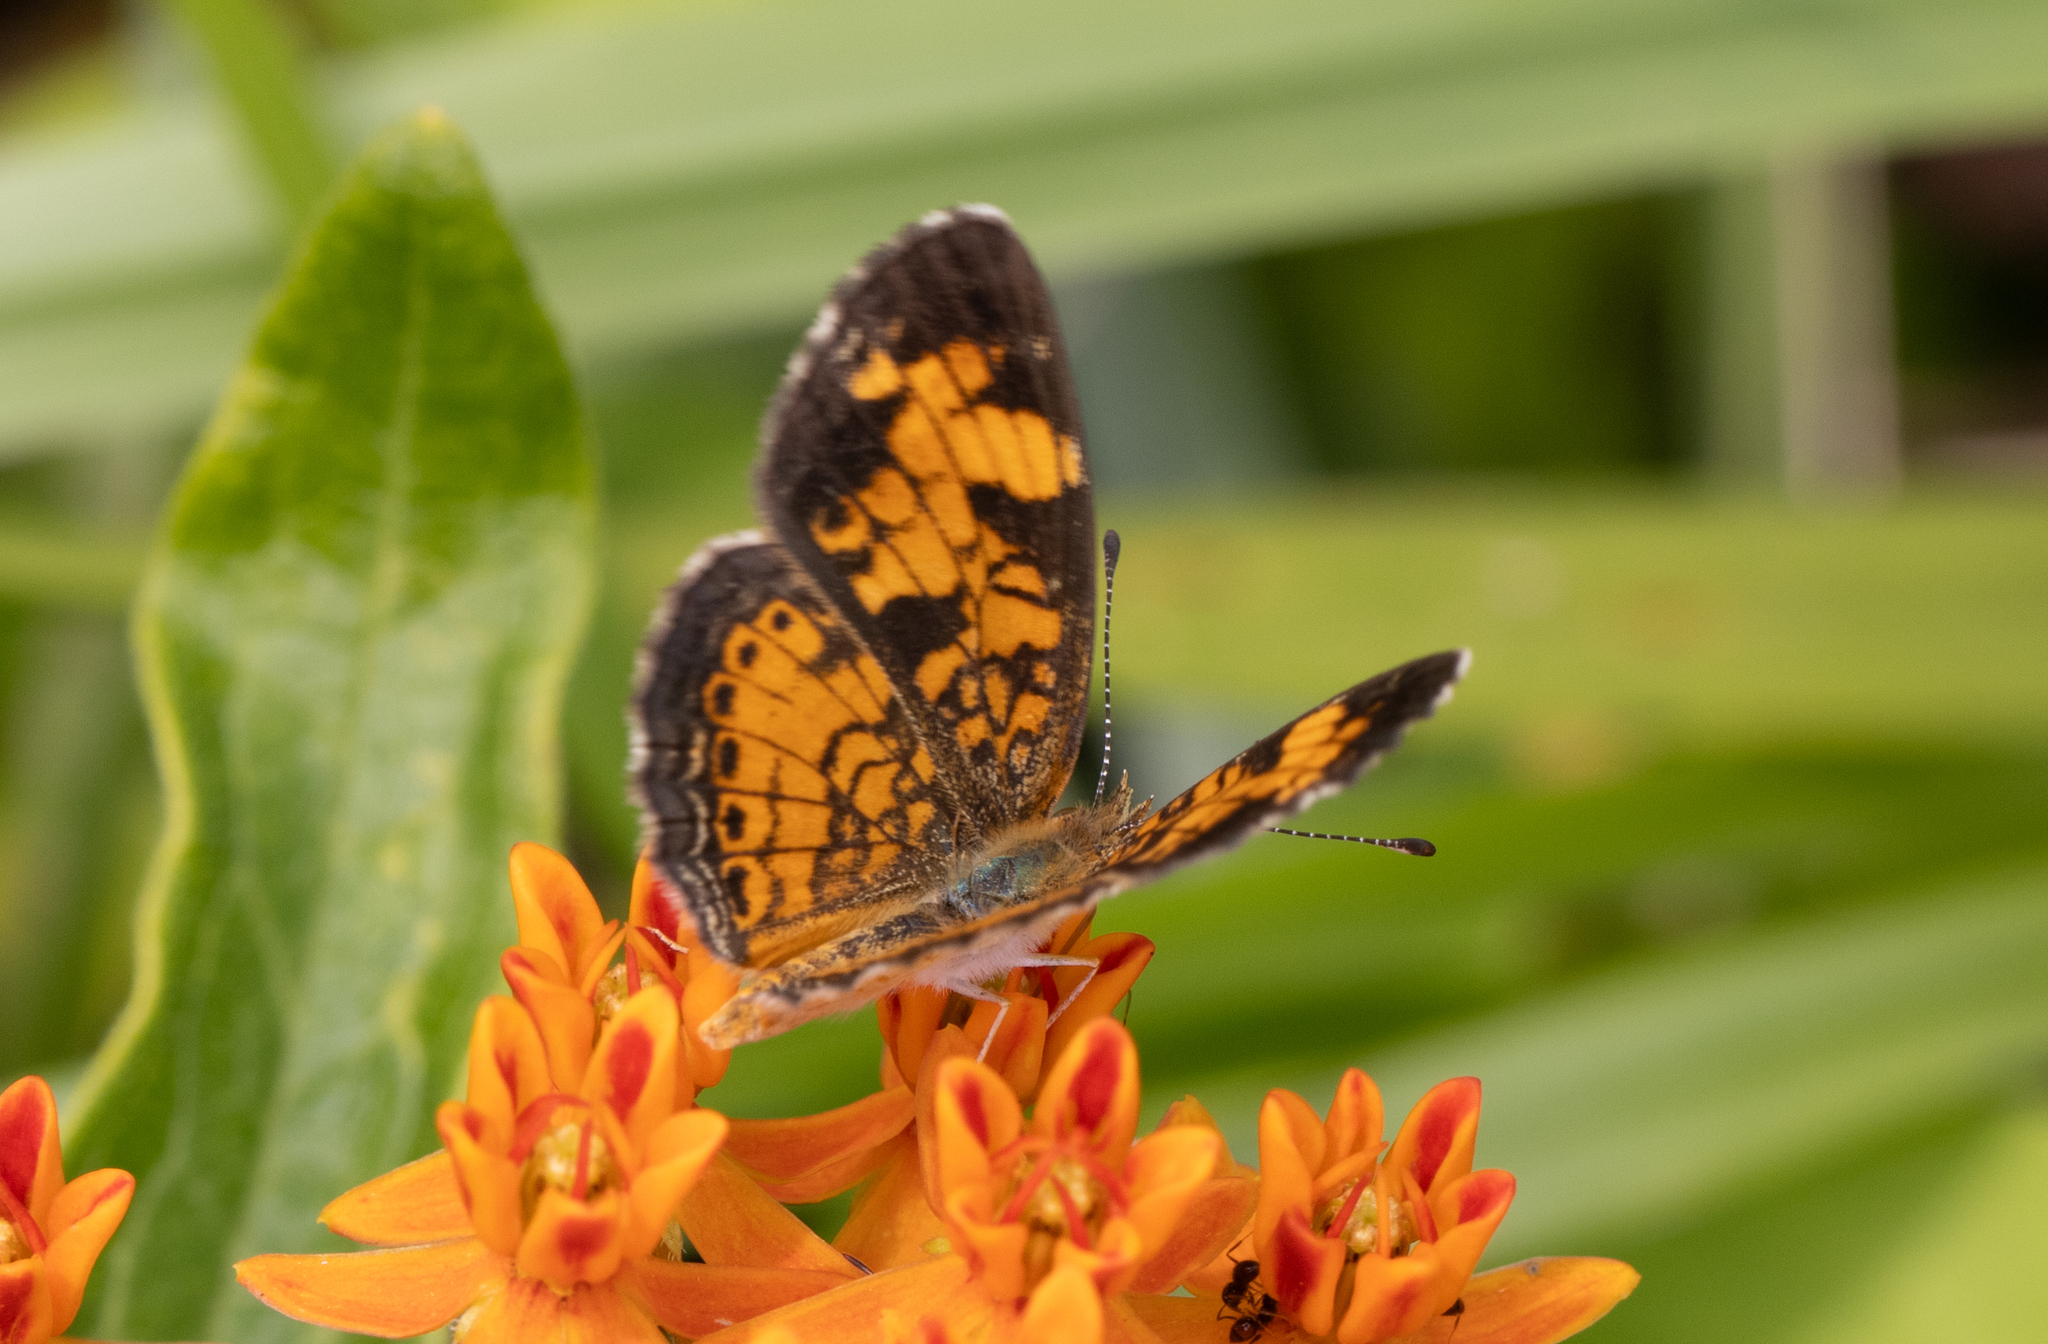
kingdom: Animalia
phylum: Arthropoda
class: Insecta
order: Lepidoptera
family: Nymphalidae
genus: Phyciodes
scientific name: Phyciodes tharos
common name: Pearl crescent
